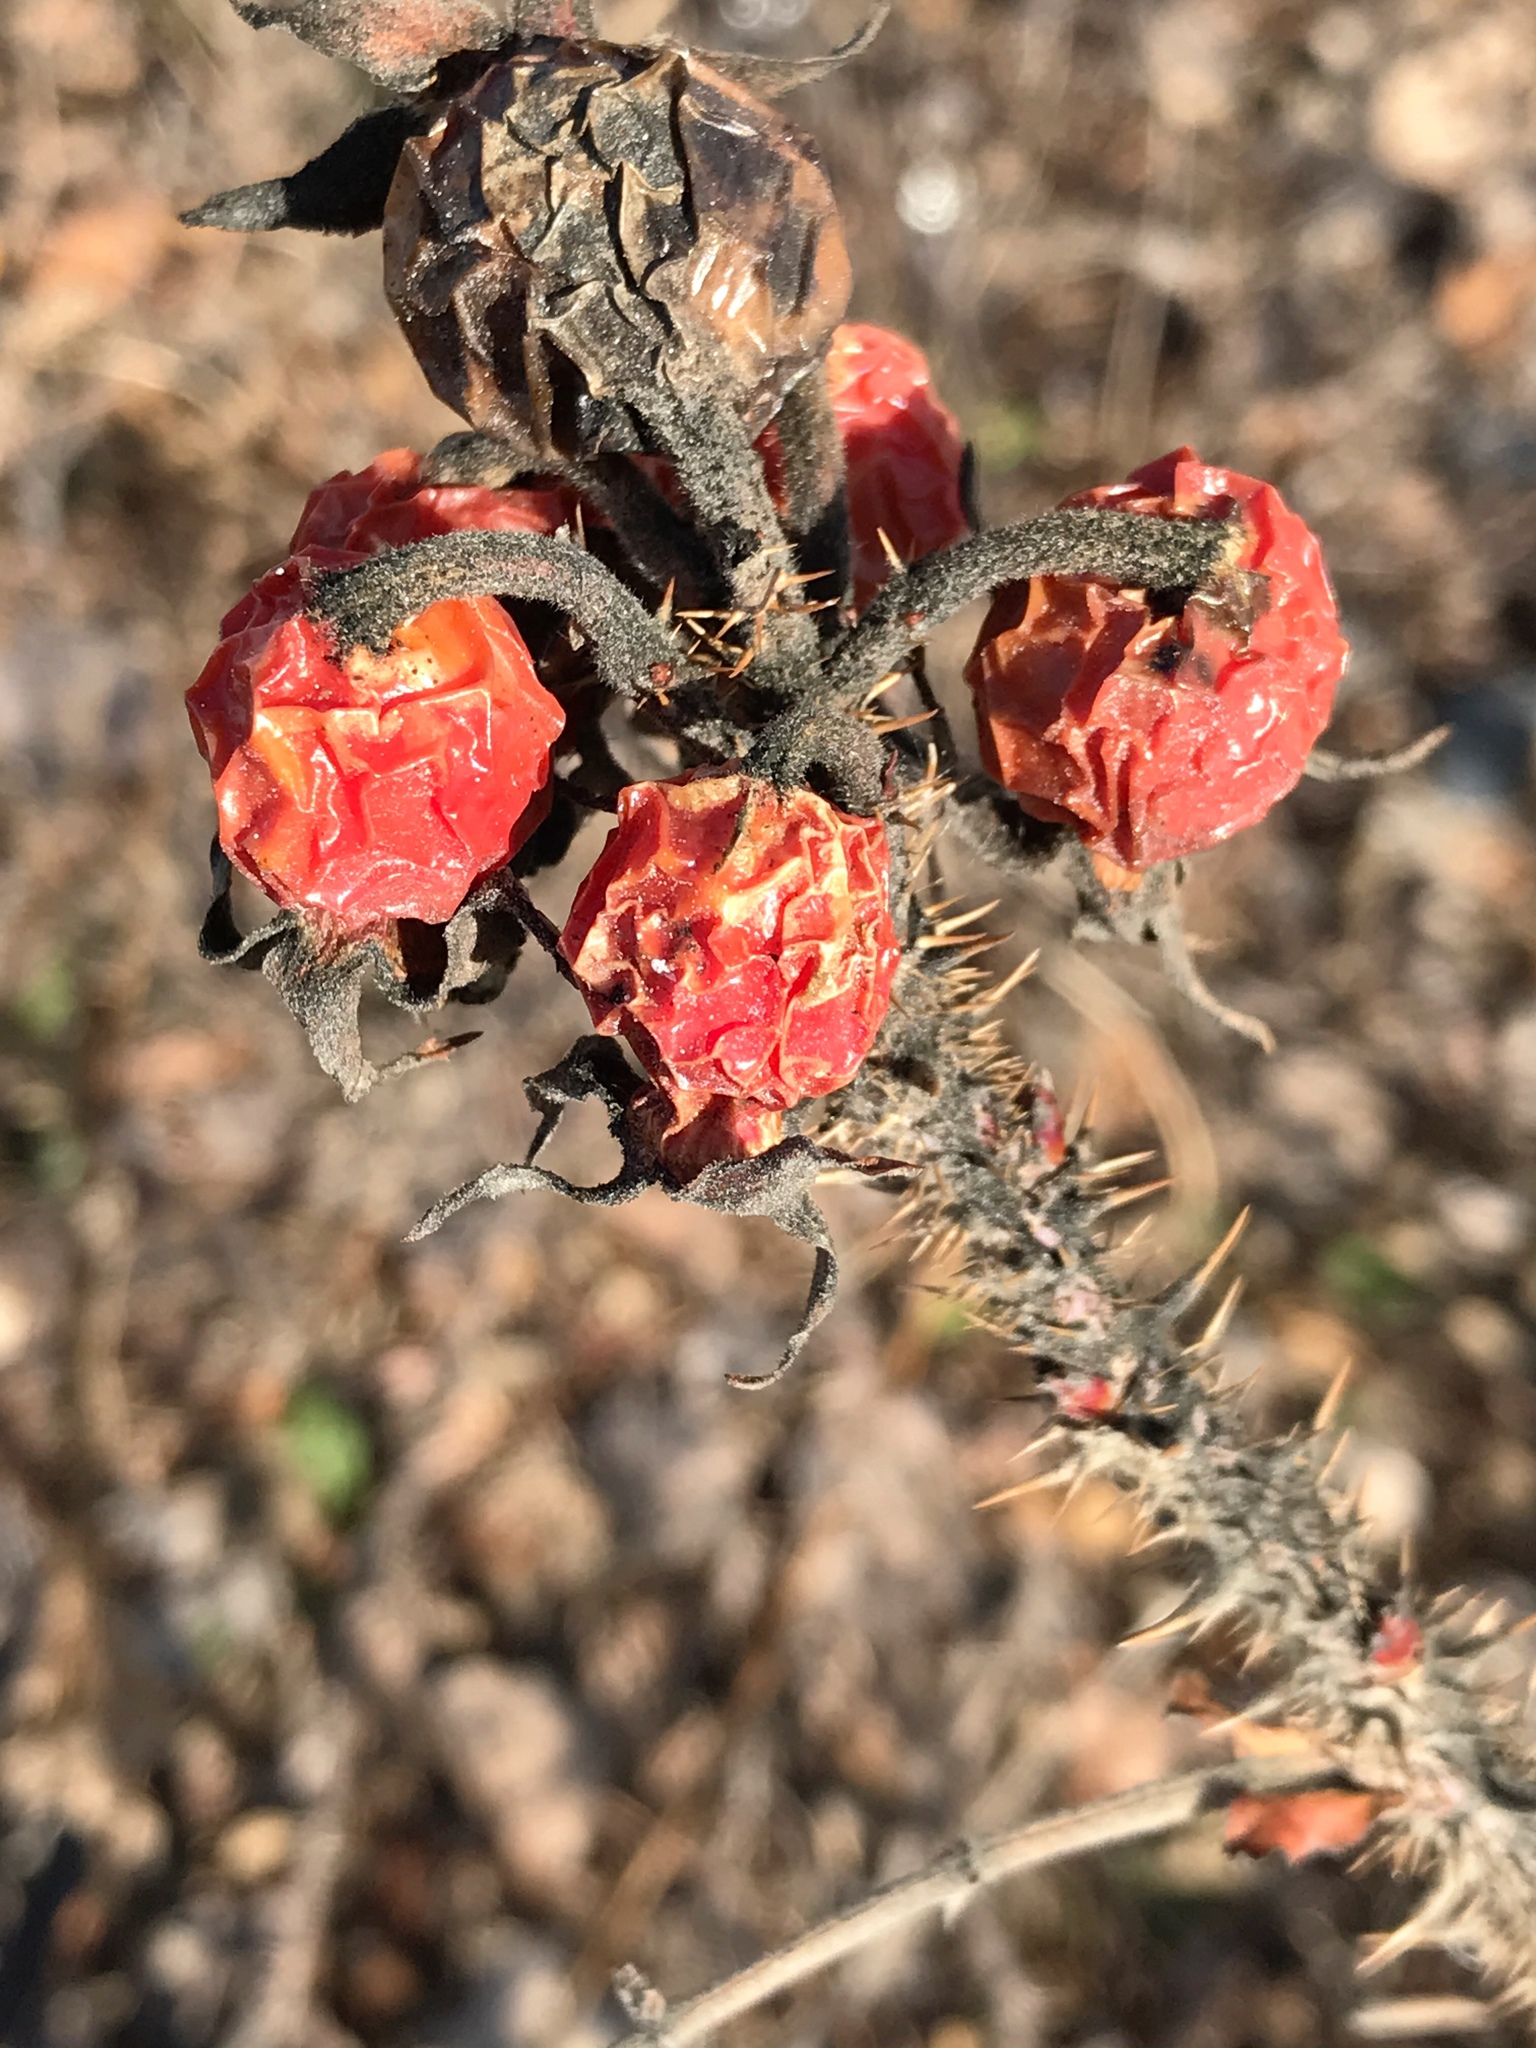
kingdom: Plantae
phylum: Tracheophyta
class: Magnoliopsida
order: Rosales
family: Rosaceae
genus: Rosa
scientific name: Rosa rugosa
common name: Japanese rose
